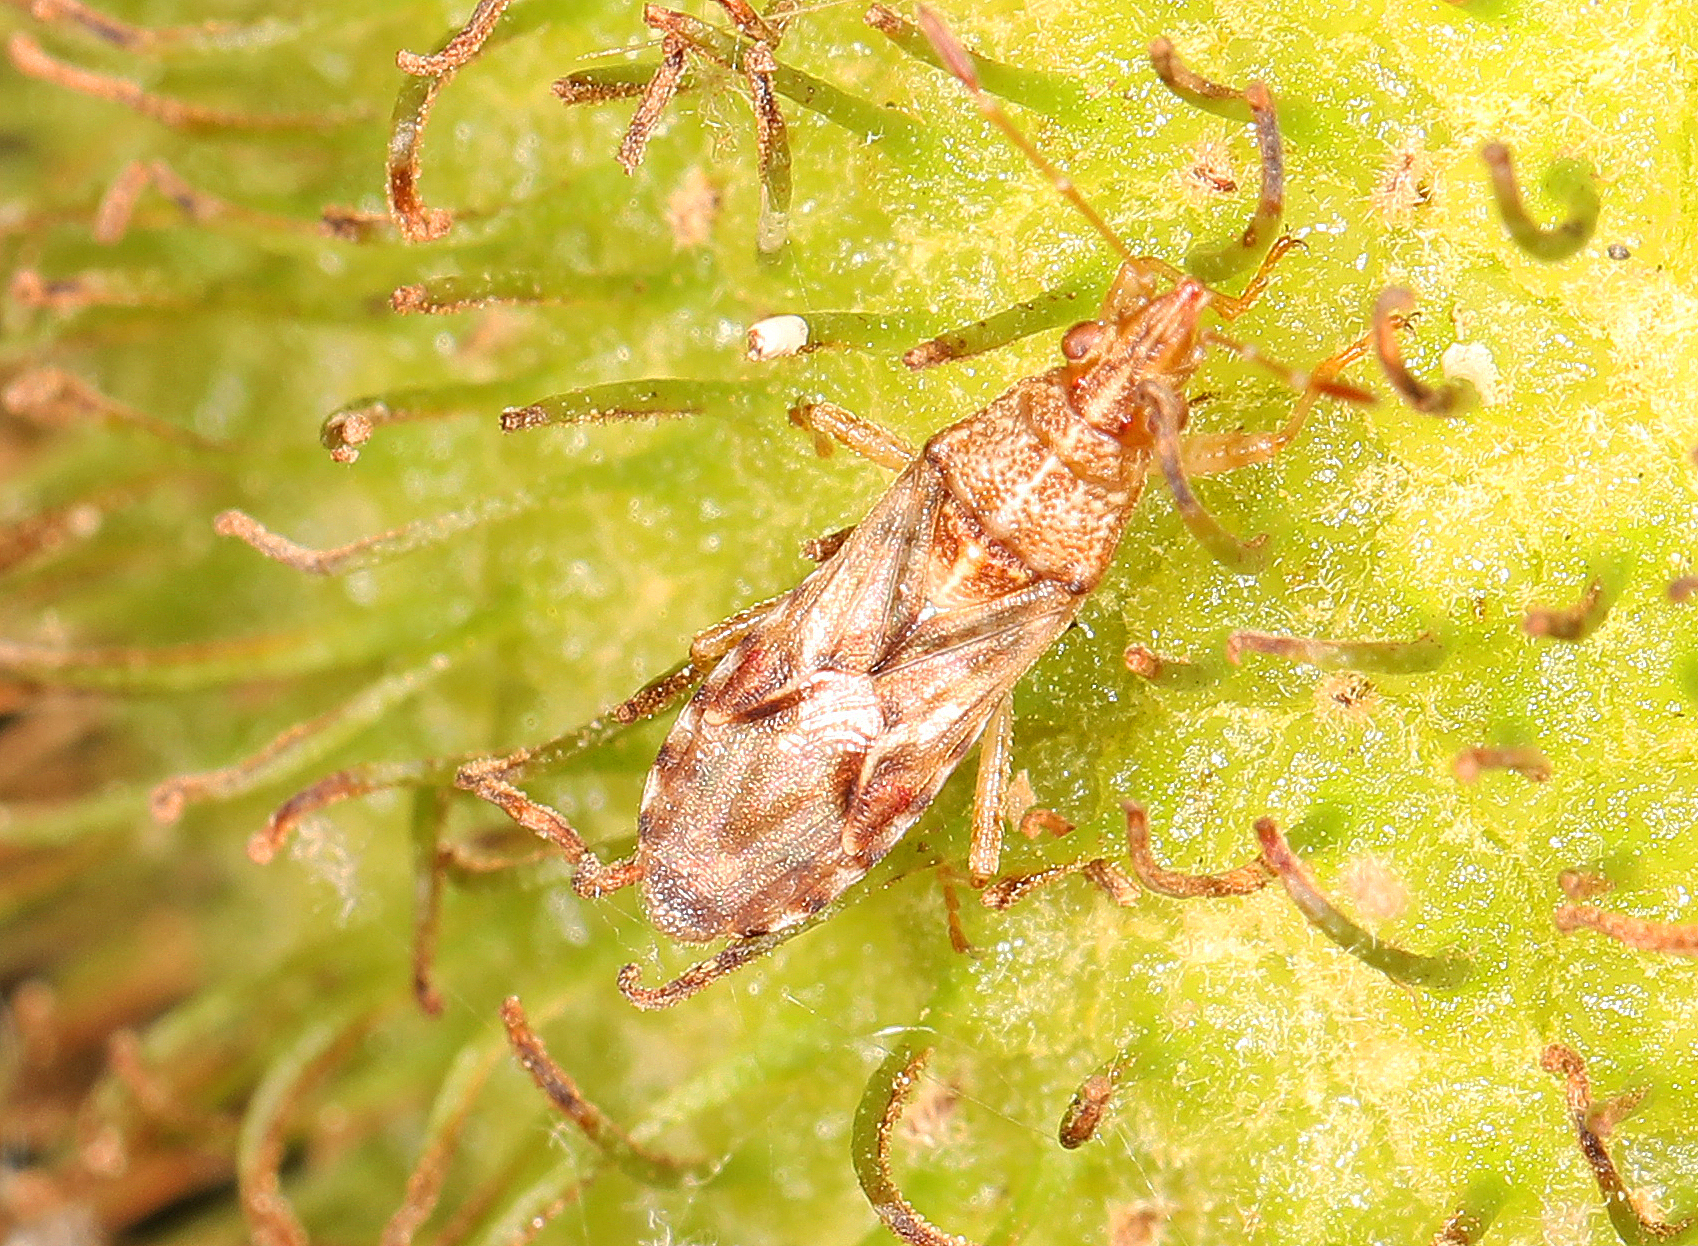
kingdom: Animalia
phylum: Arthropoda
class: Insecta
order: Hemiptera
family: Lygaeidae
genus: Belonochilus
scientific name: Belonochilus numenius
